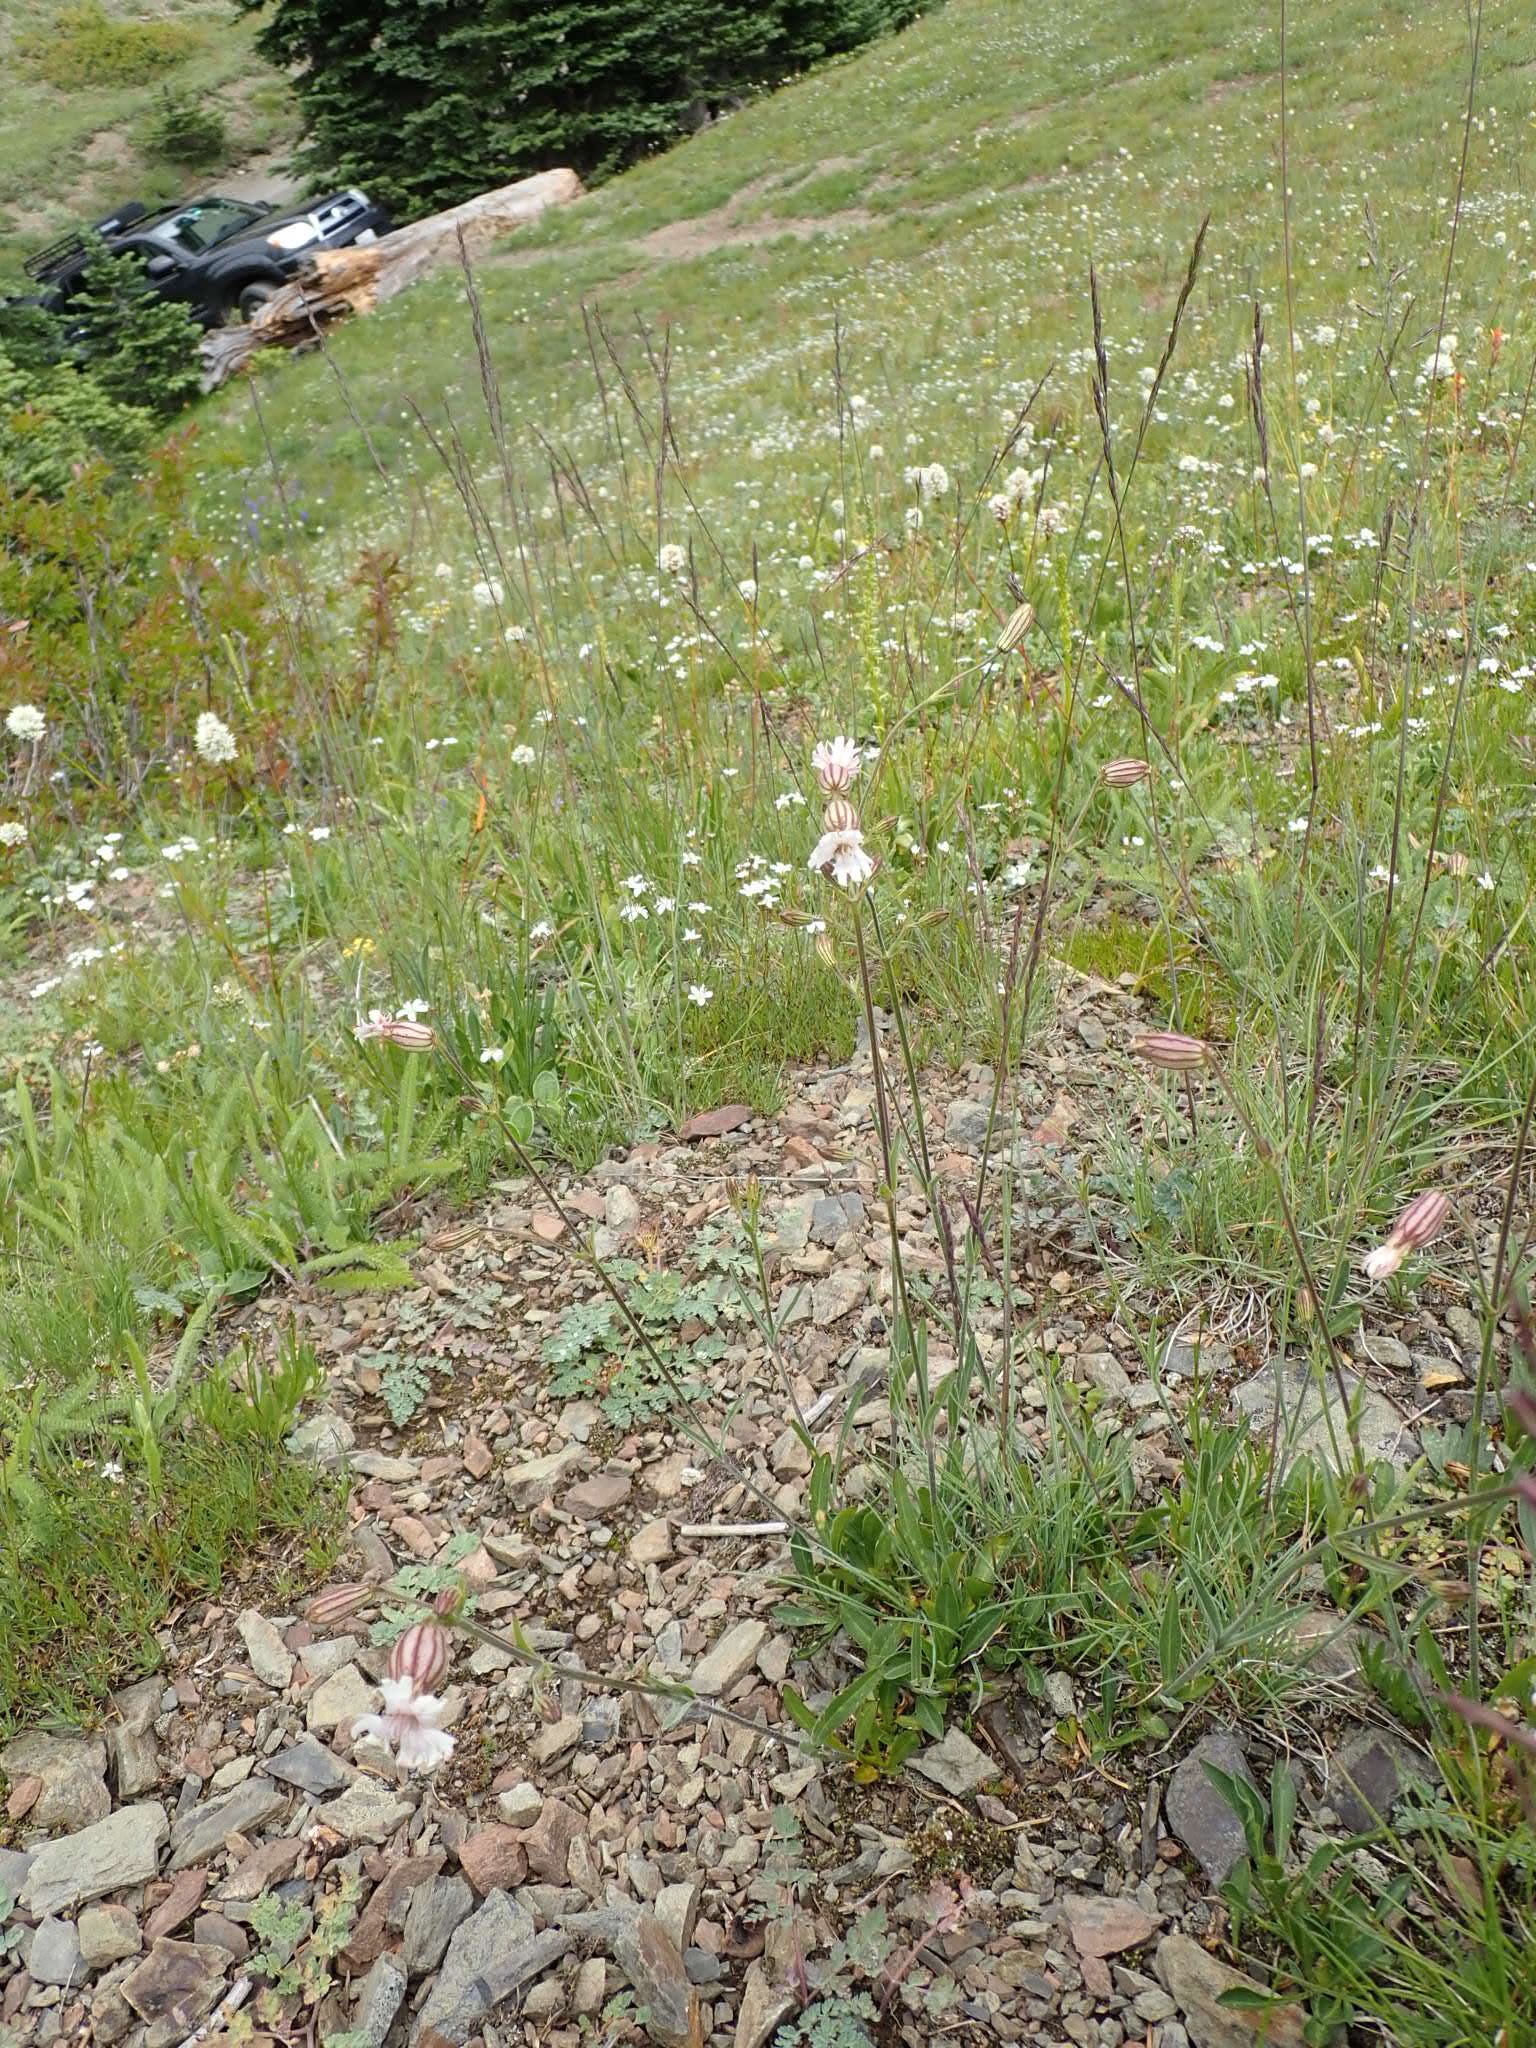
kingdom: Plantae
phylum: Tracheophyta
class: Magnoliopsida
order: Caryophyllales
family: Caryophyllaceae
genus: Silene
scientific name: Silene parryi
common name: Parry's campion
